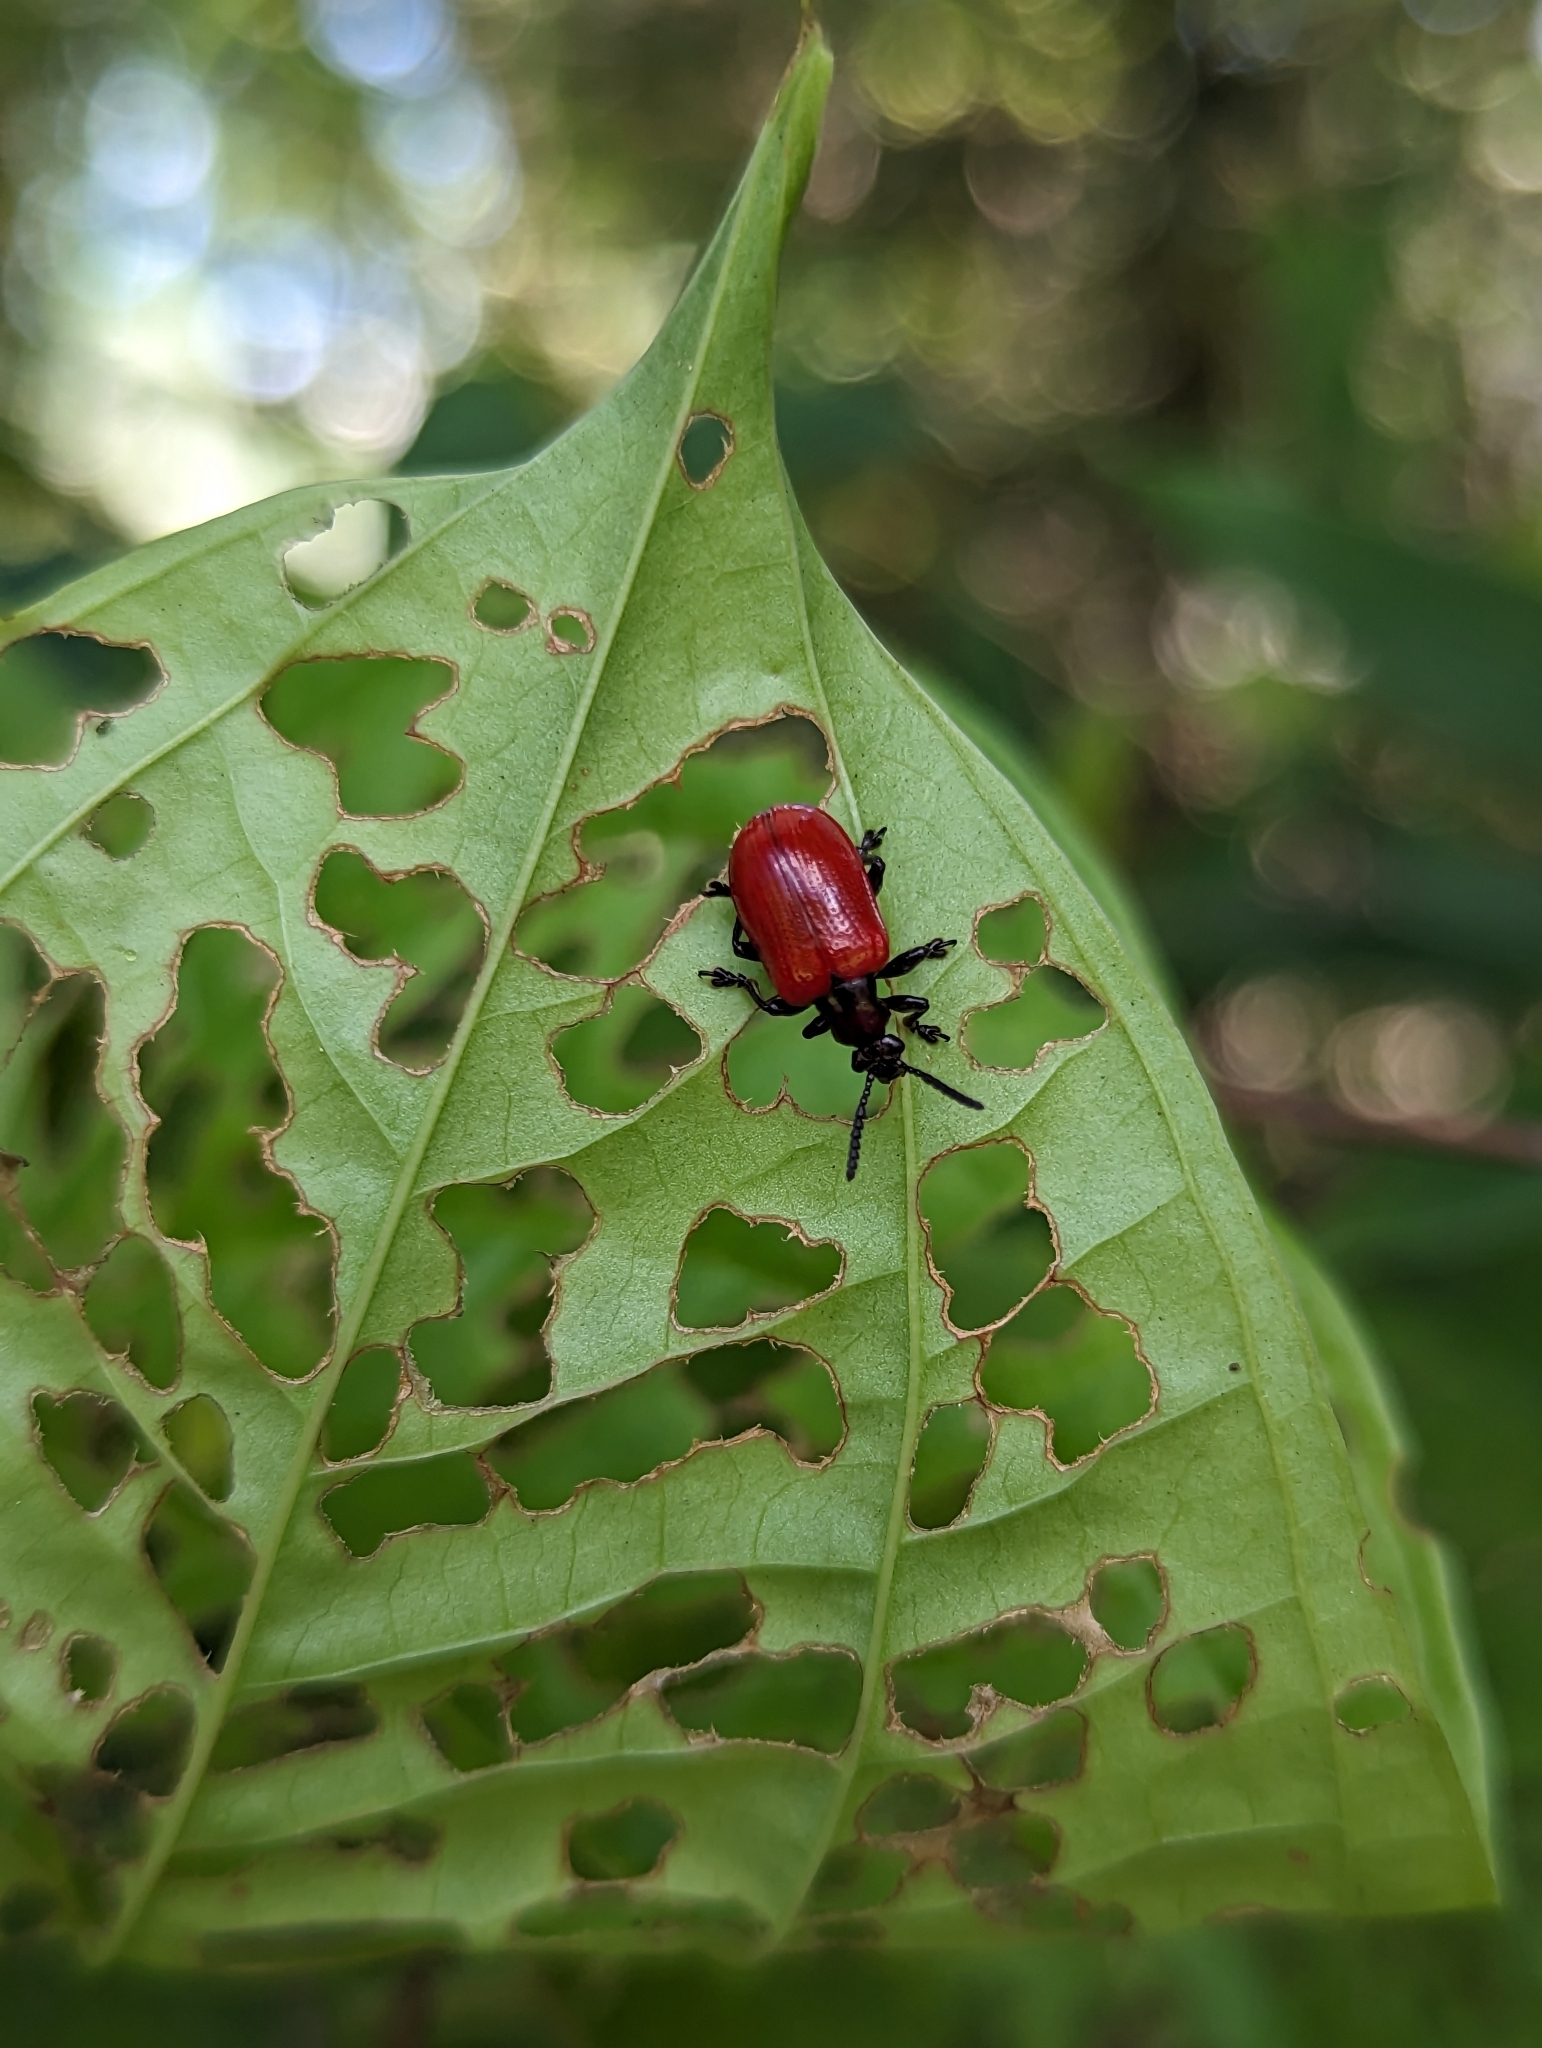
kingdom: Animalia
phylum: Arthropoda
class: Insecta
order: Coleoptera
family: Chrysomelidae
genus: Lilioceris
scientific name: Lilioceris cheni
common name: Leaf beetle
